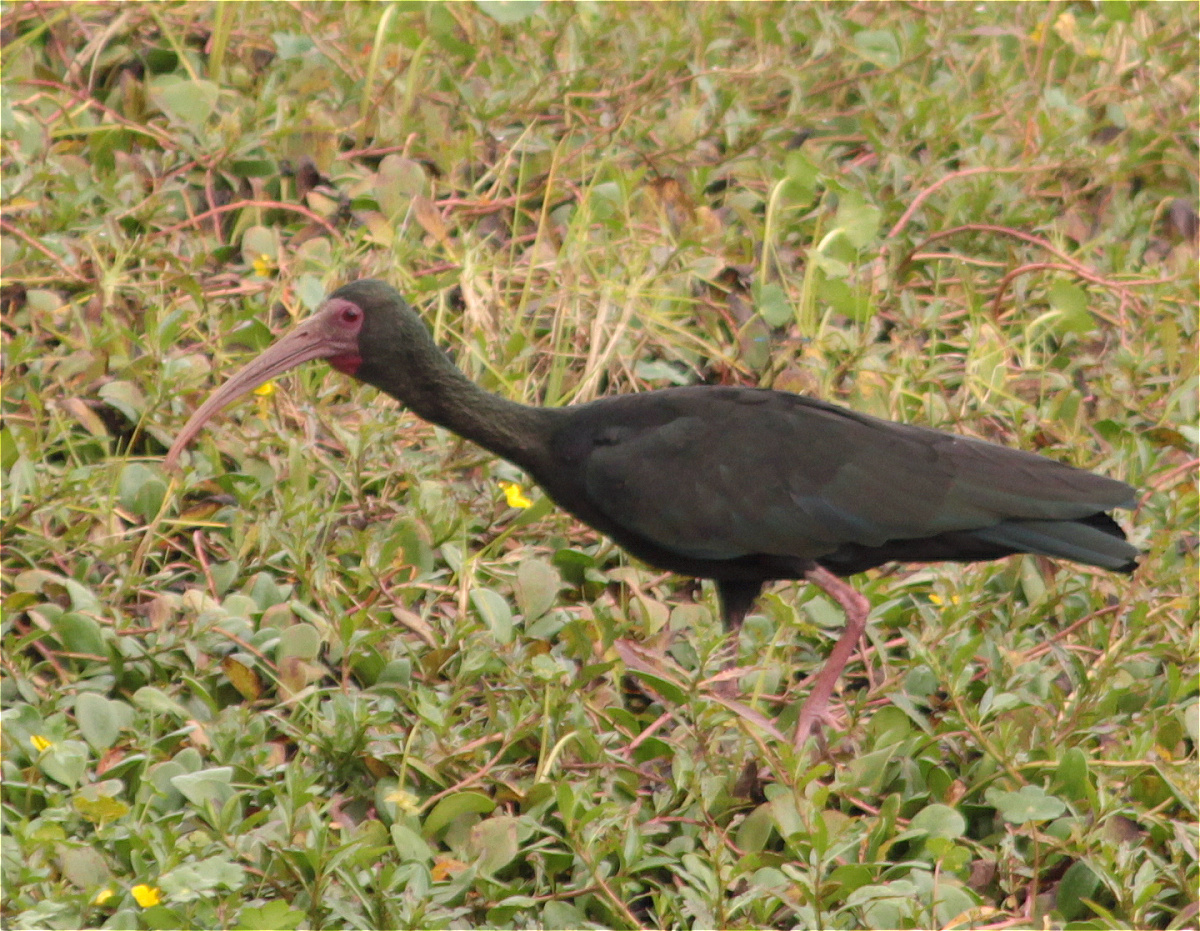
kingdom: Animalia
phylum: Chordata
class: Aves
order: Pelecaniformes
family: Threskiornithidae
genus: Phimosus
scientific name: Phimosus infuscatus
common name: Bare-faced ibis
